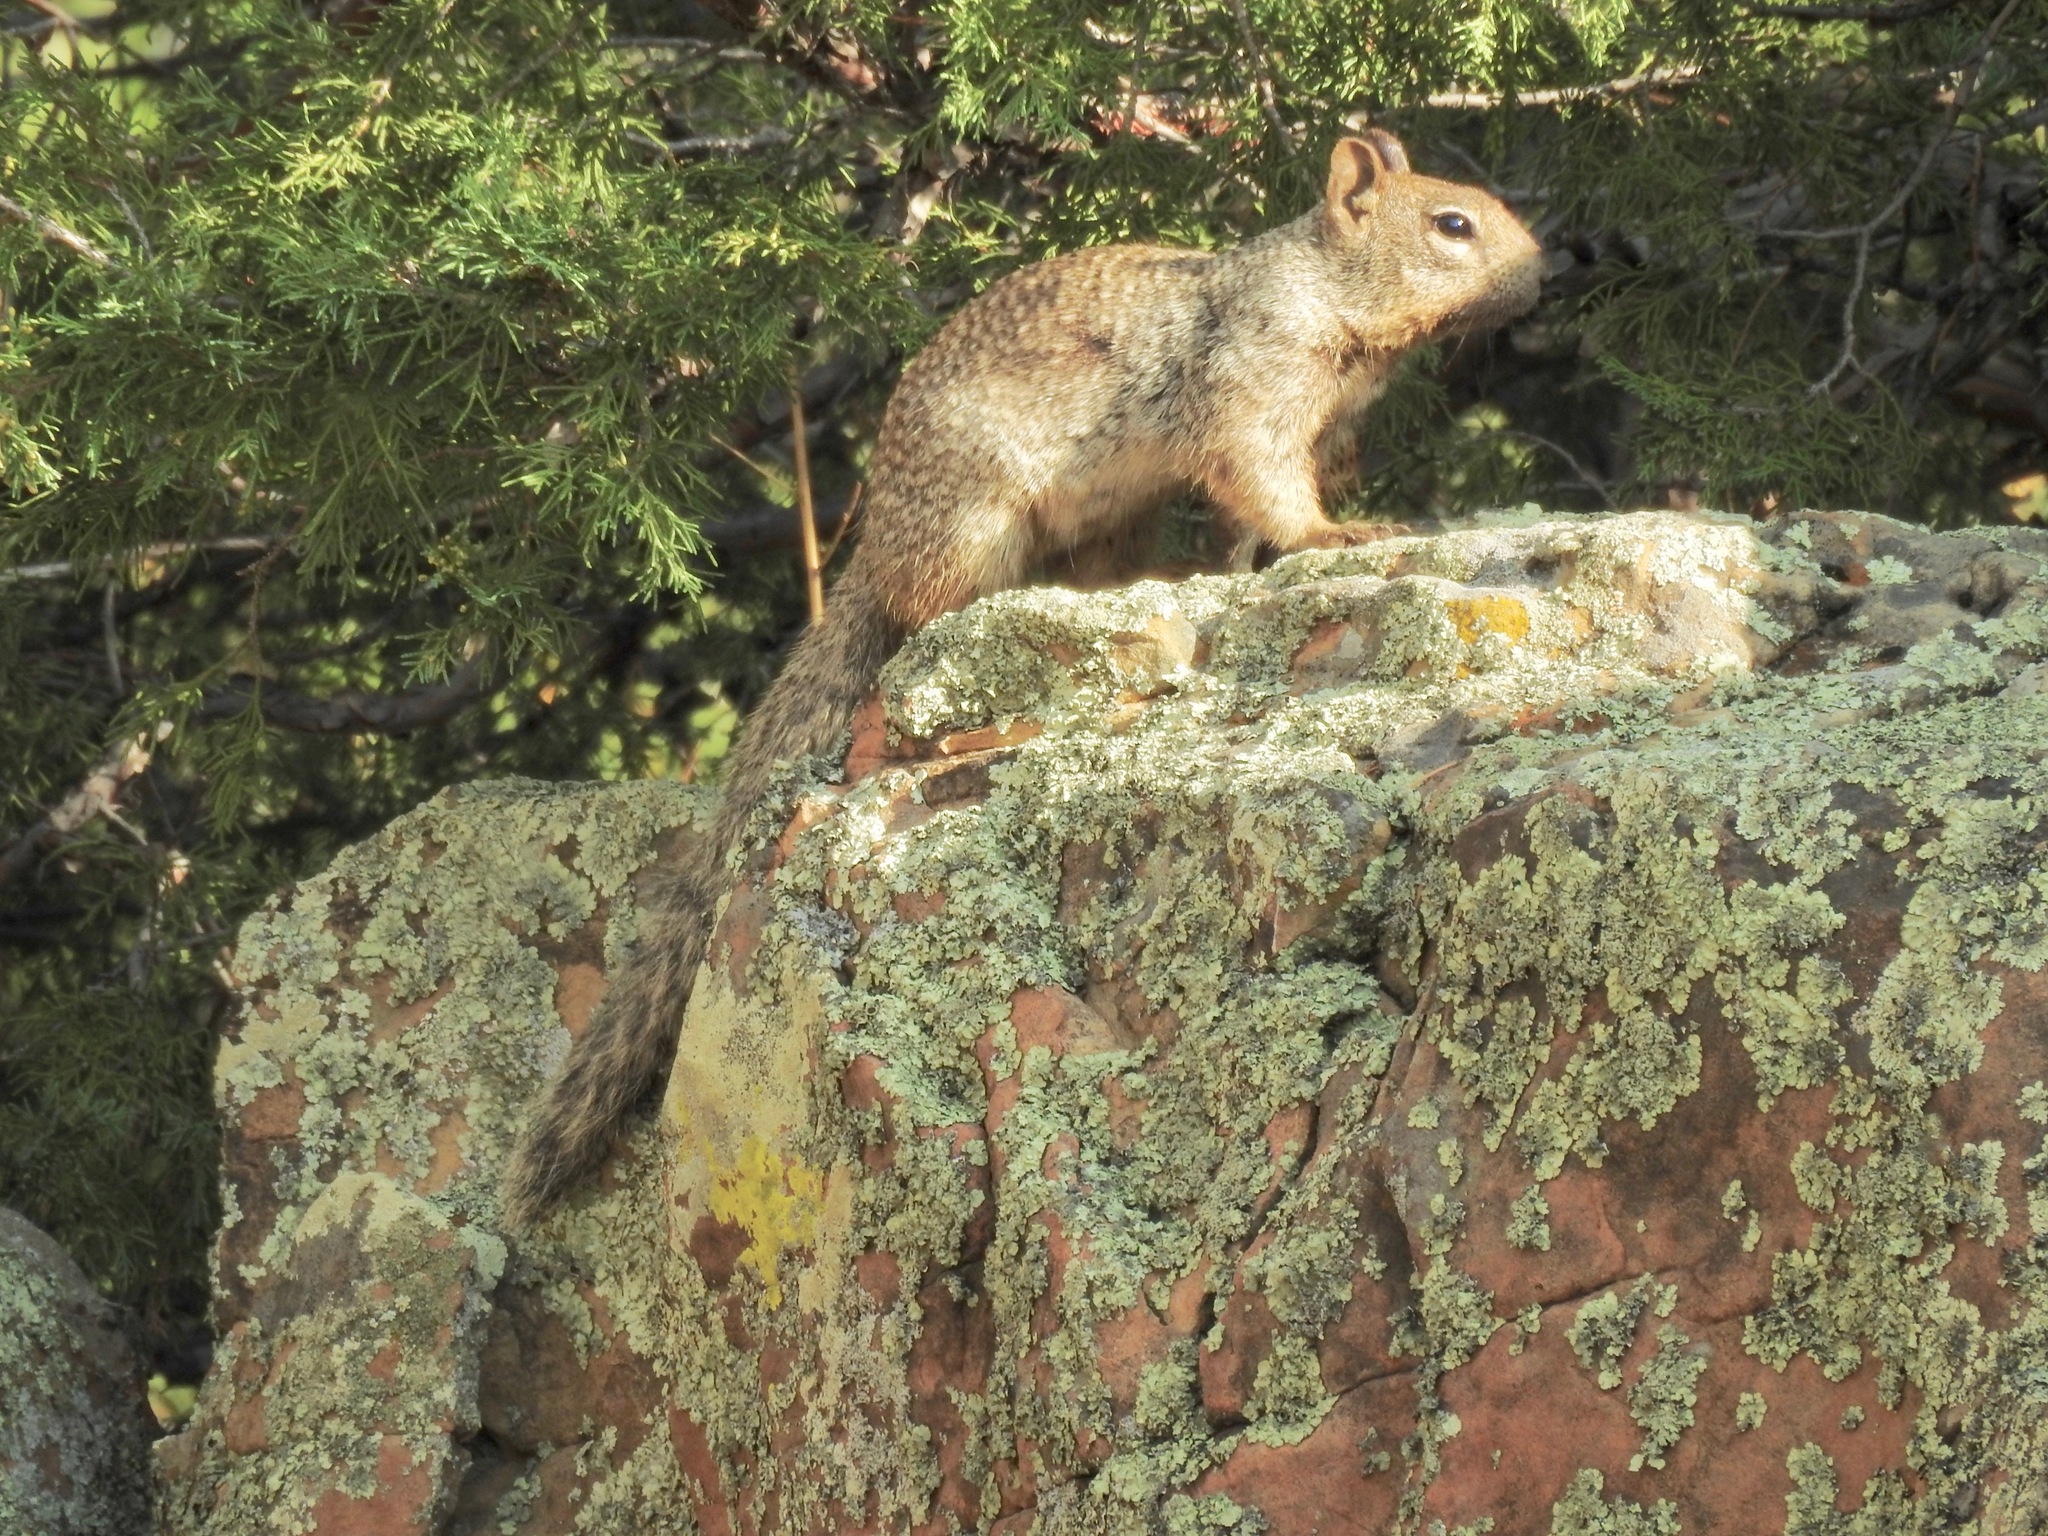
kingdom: Animalia
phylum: Chordata
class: Mammalia
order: Rodentia
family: Sciuridae
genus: Otospermophilus
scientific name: Otospermophilus variegatus
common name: Rock squirrel
